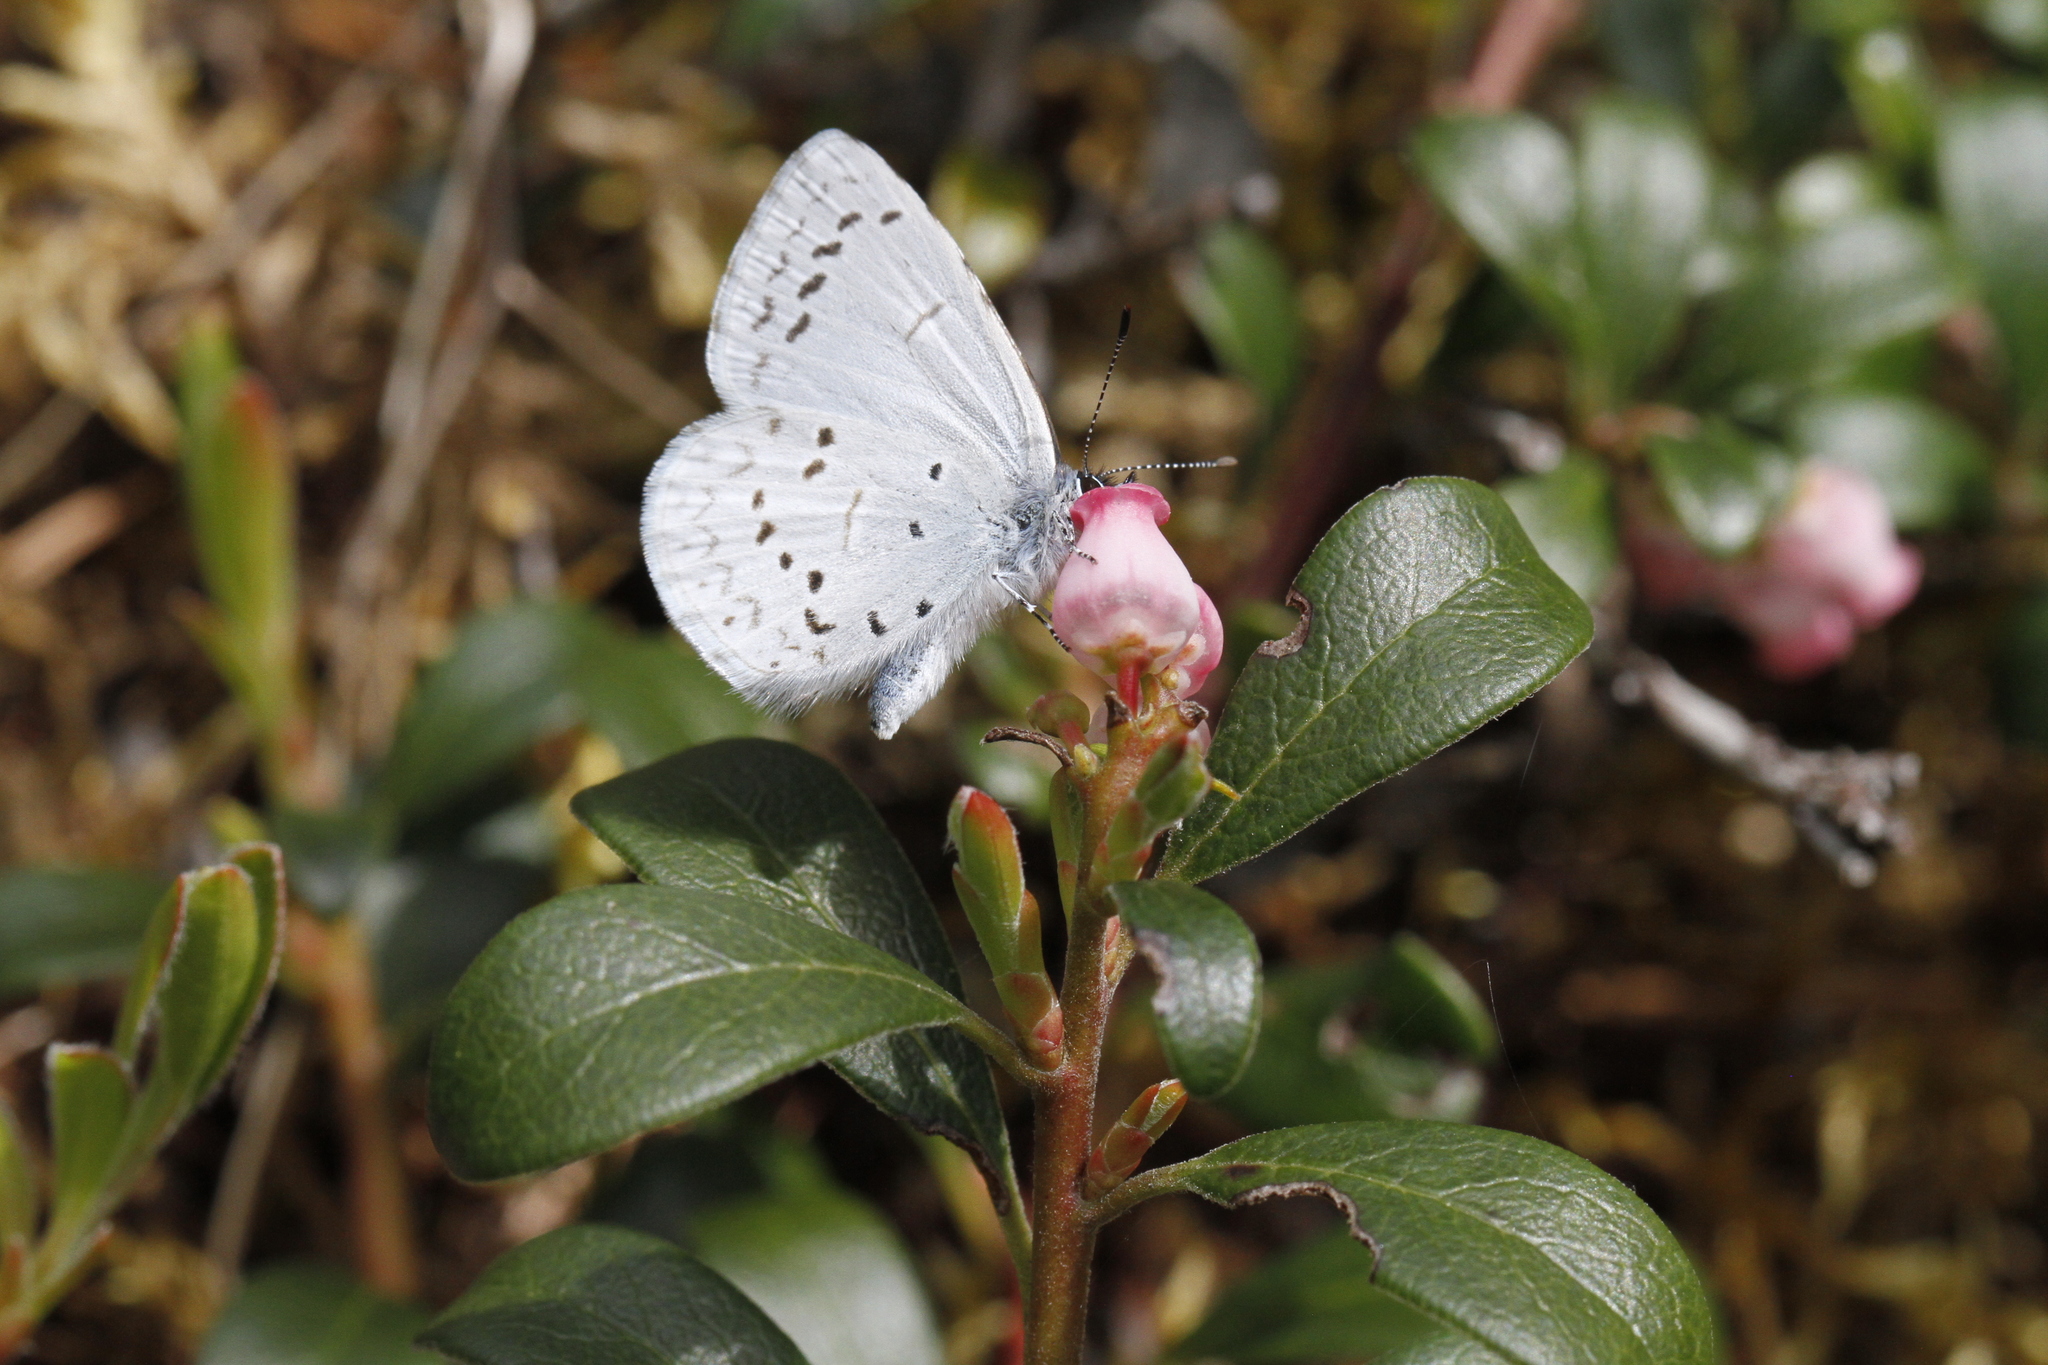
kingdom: Animalia
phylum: Arthropoda
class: Insecta
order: Lepidoptera
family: Lycaenidae
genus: Celastrina
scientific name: Celastrina ladon
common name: Spring azure
